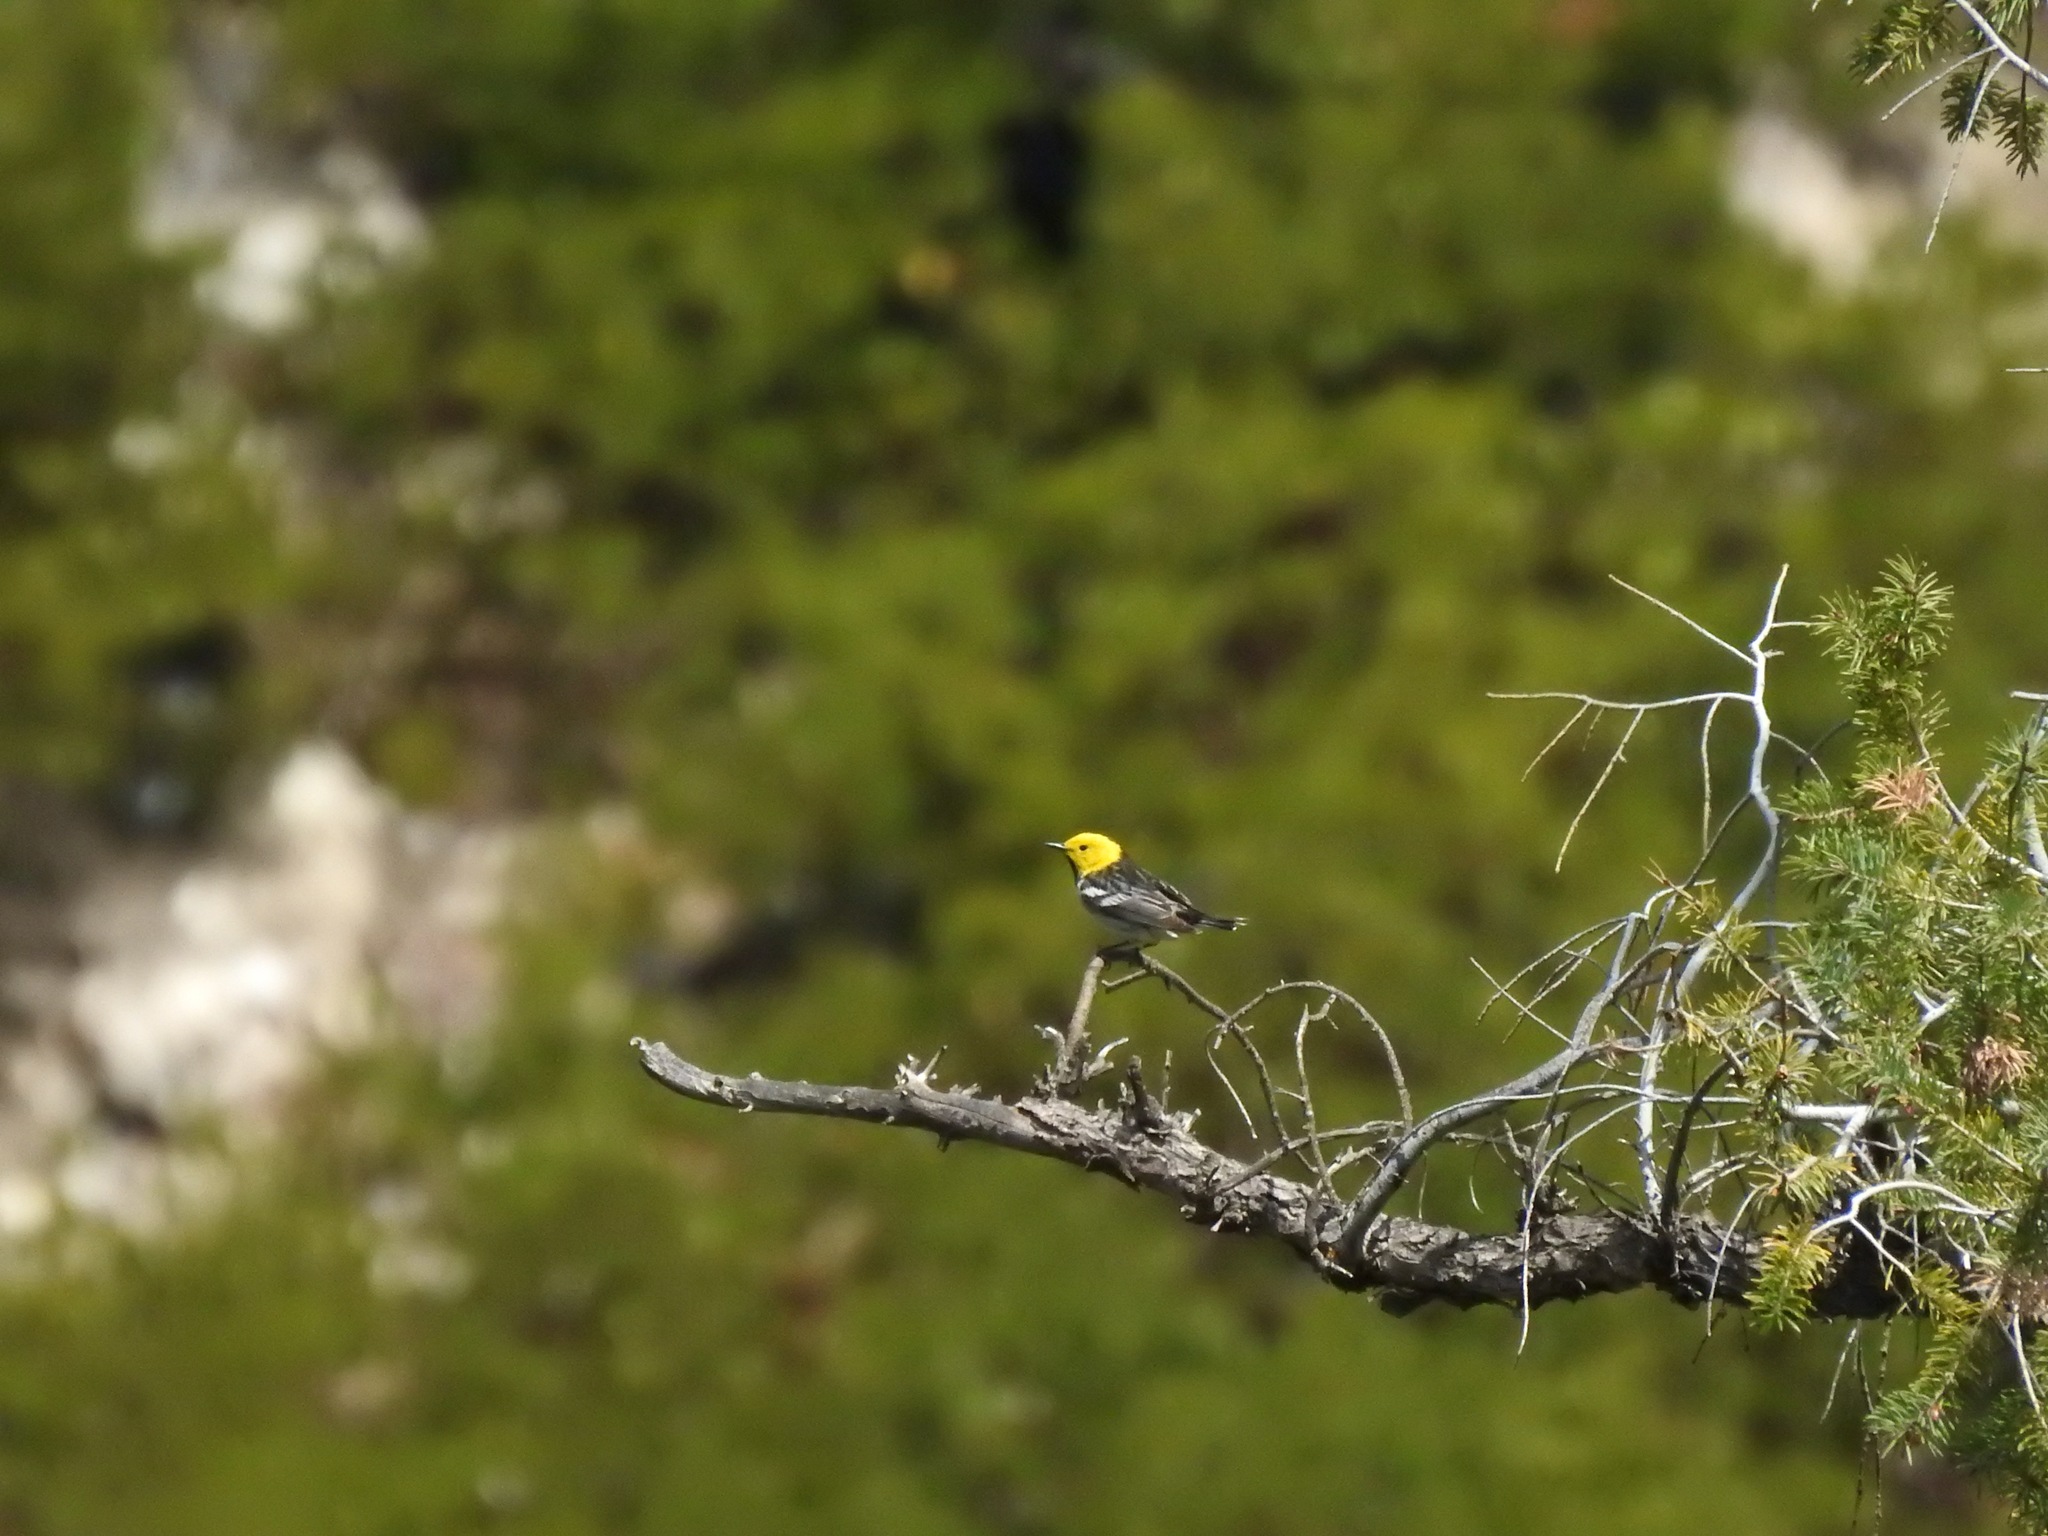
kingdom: Animalia
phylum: Chordata
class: Aves
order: Passeriformes
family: Parulidae
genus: Setophaga
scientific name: Setophaga occidentalis
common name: Hermit warbler
